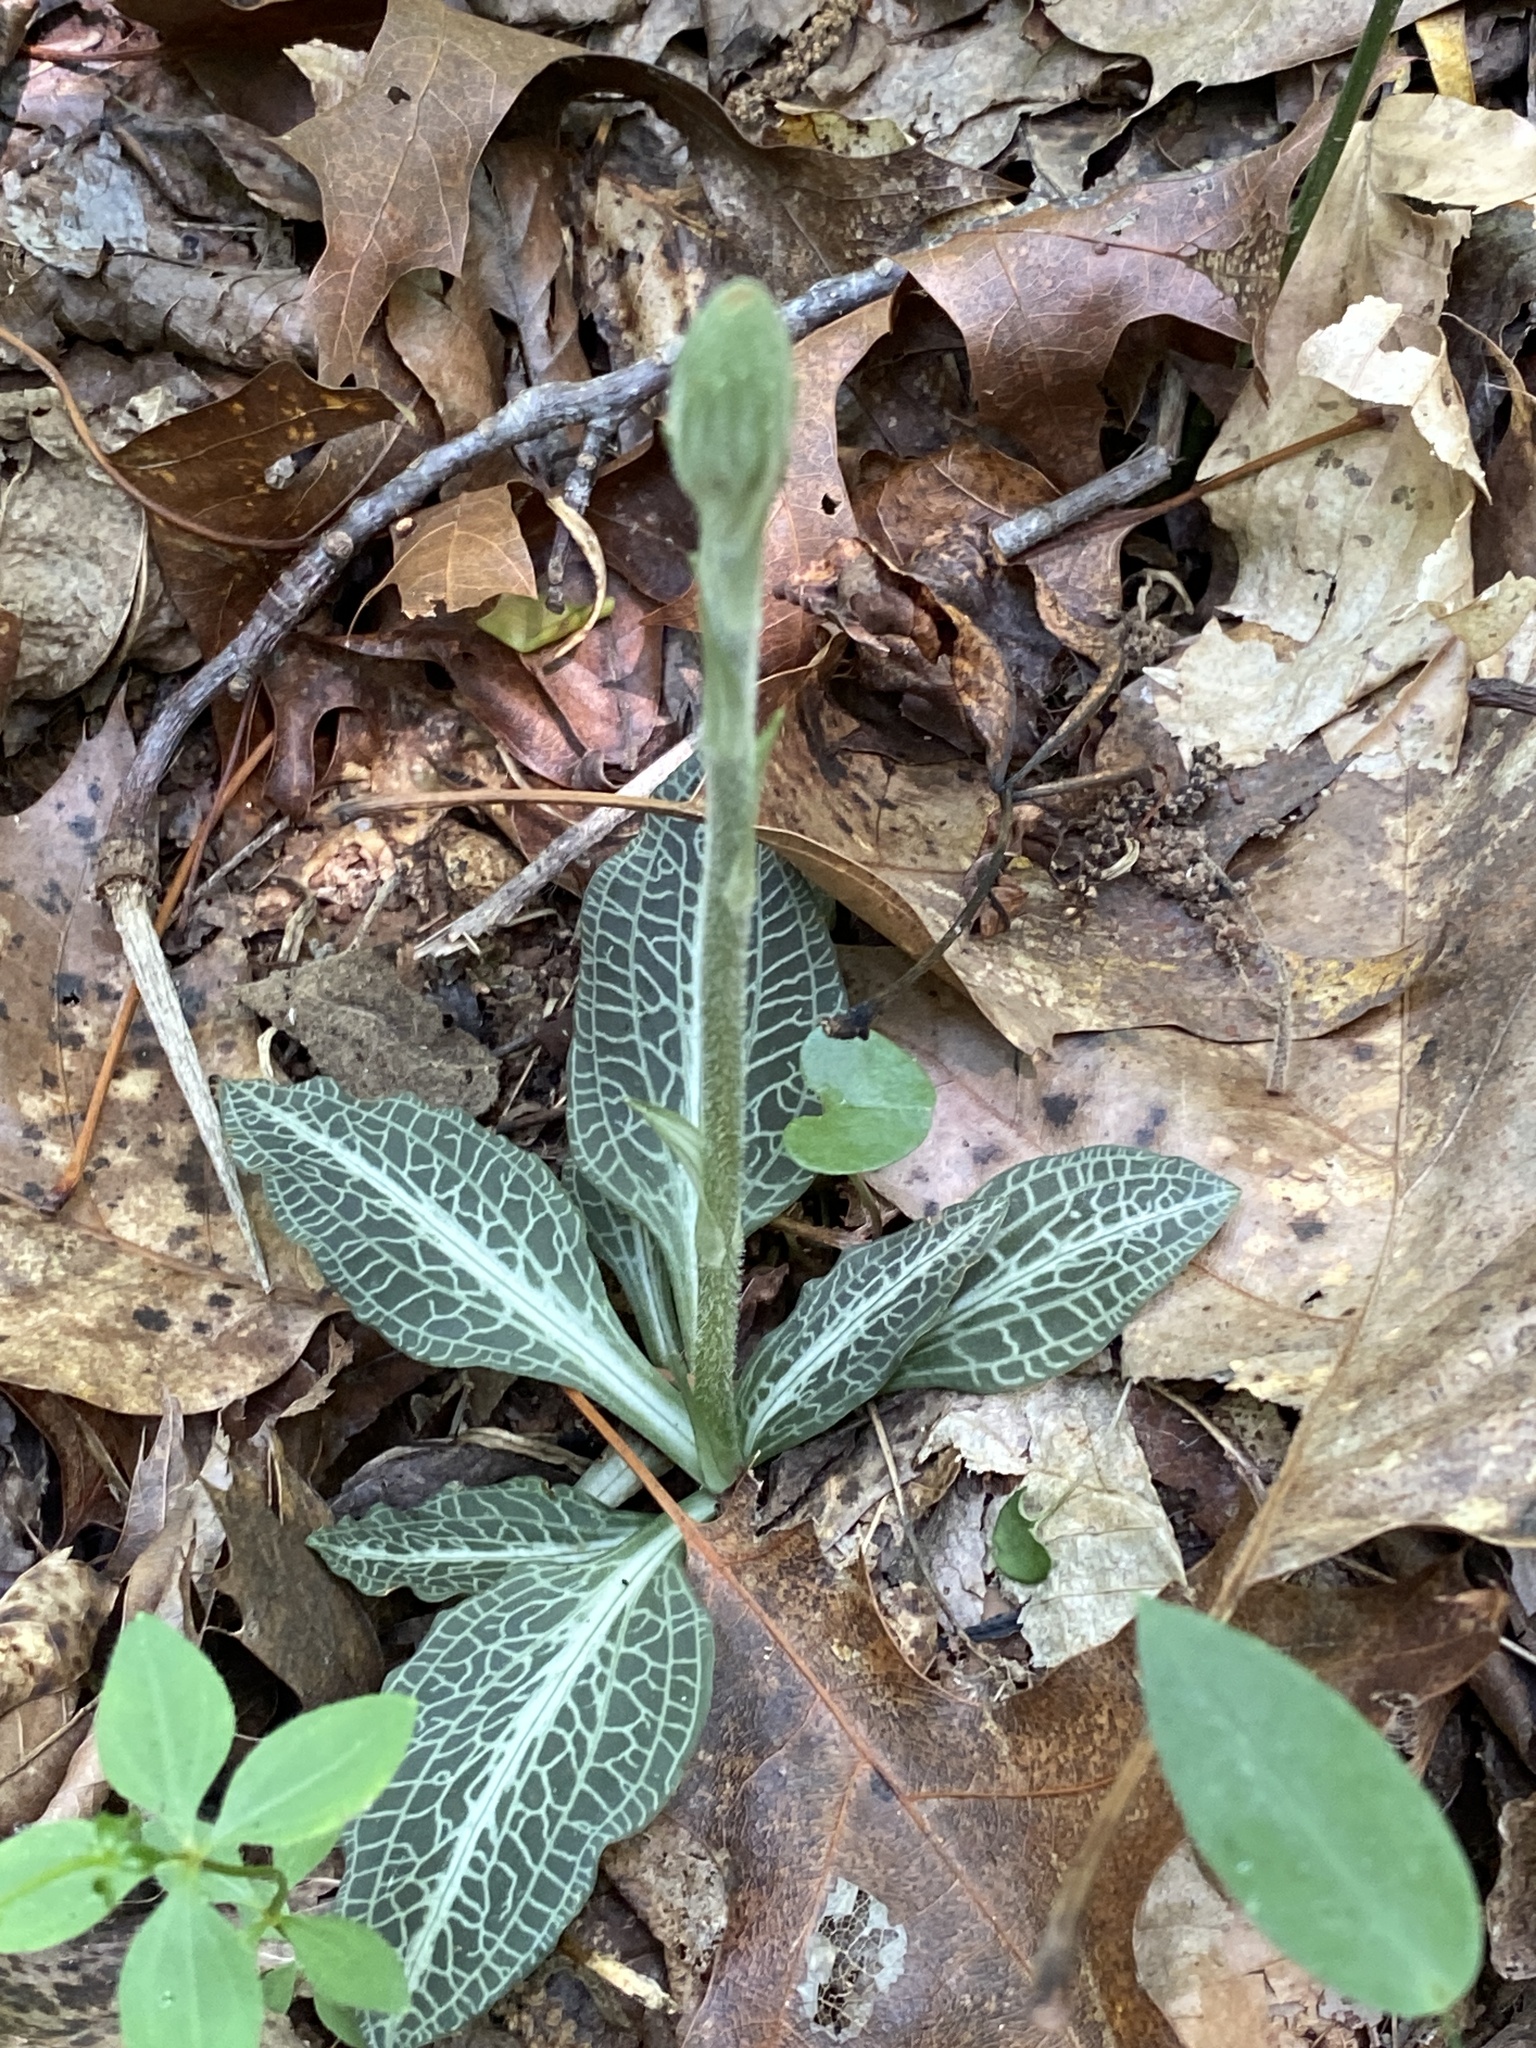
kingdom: Plantae
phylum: Tracheophyta
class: Liliopsida
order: Asparagales
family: Orchidaceae
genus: Goodyera
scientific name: Goodyera pubescens
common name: Downy rattlesnake-plantain
